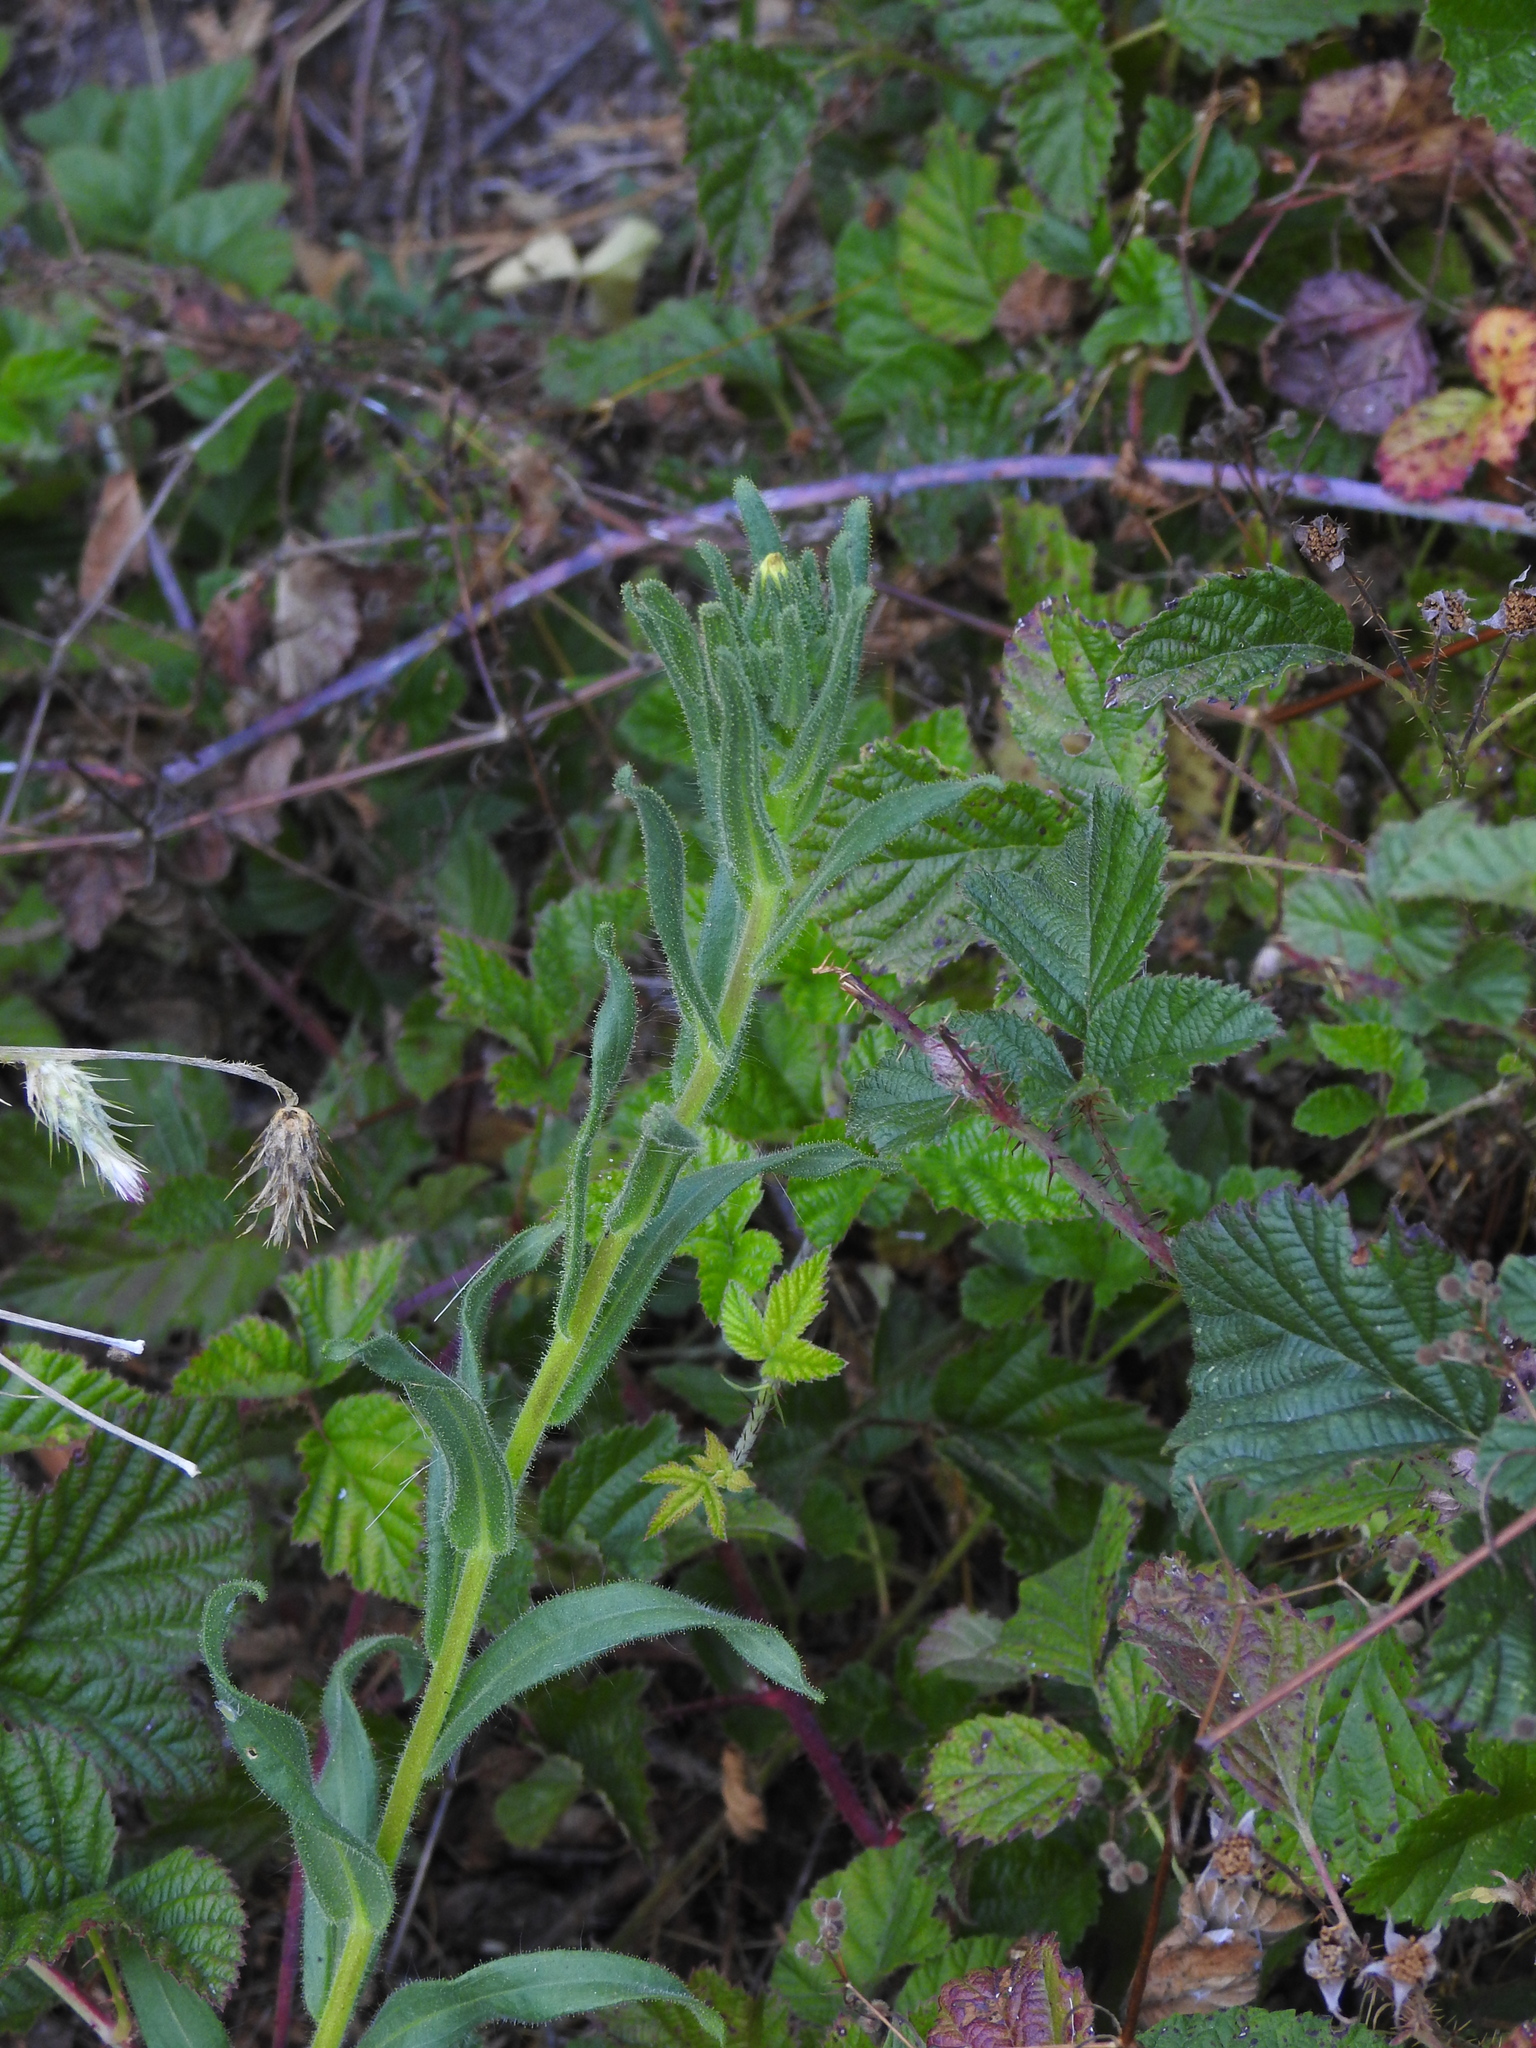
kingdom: Plantae
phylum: Tracheophyta
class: Magnoliopsida
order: Asterales
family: Asteraceae
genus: Madia
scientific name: Madia sativa
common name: Coast tarweed
